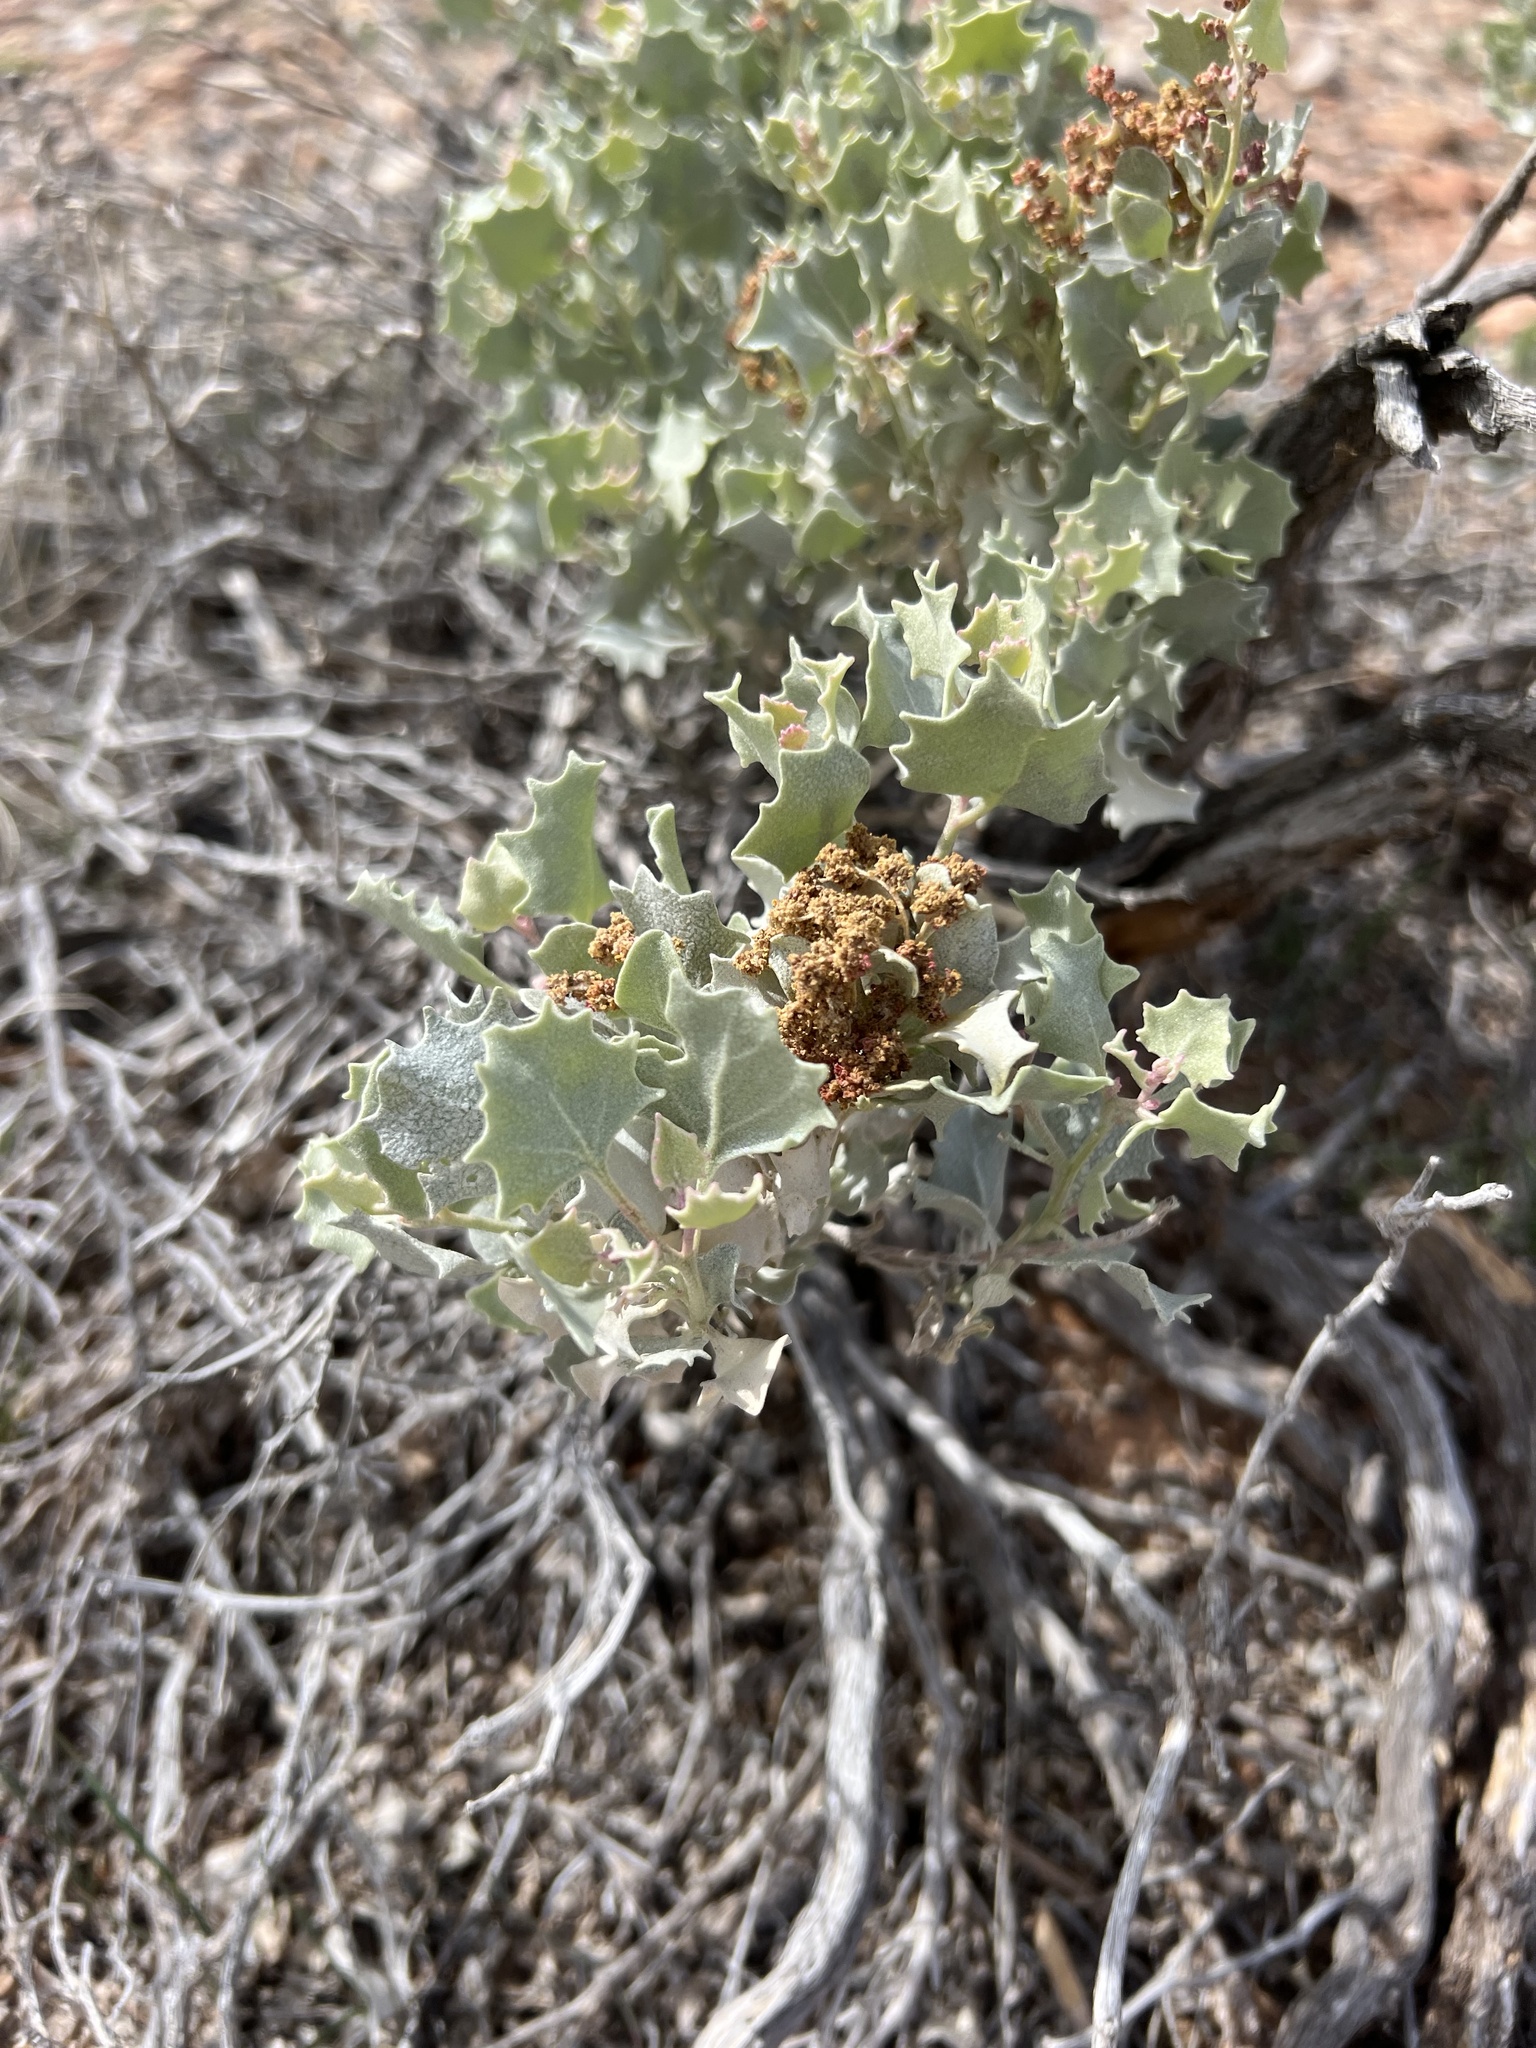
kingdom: Plantae
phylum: Tracheophyta
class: Magnoliopsida
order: Caryophyllales
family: Amaranthaceae
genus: Atriplex
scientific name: Atriplex hymenelytra
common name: Desert-holly
